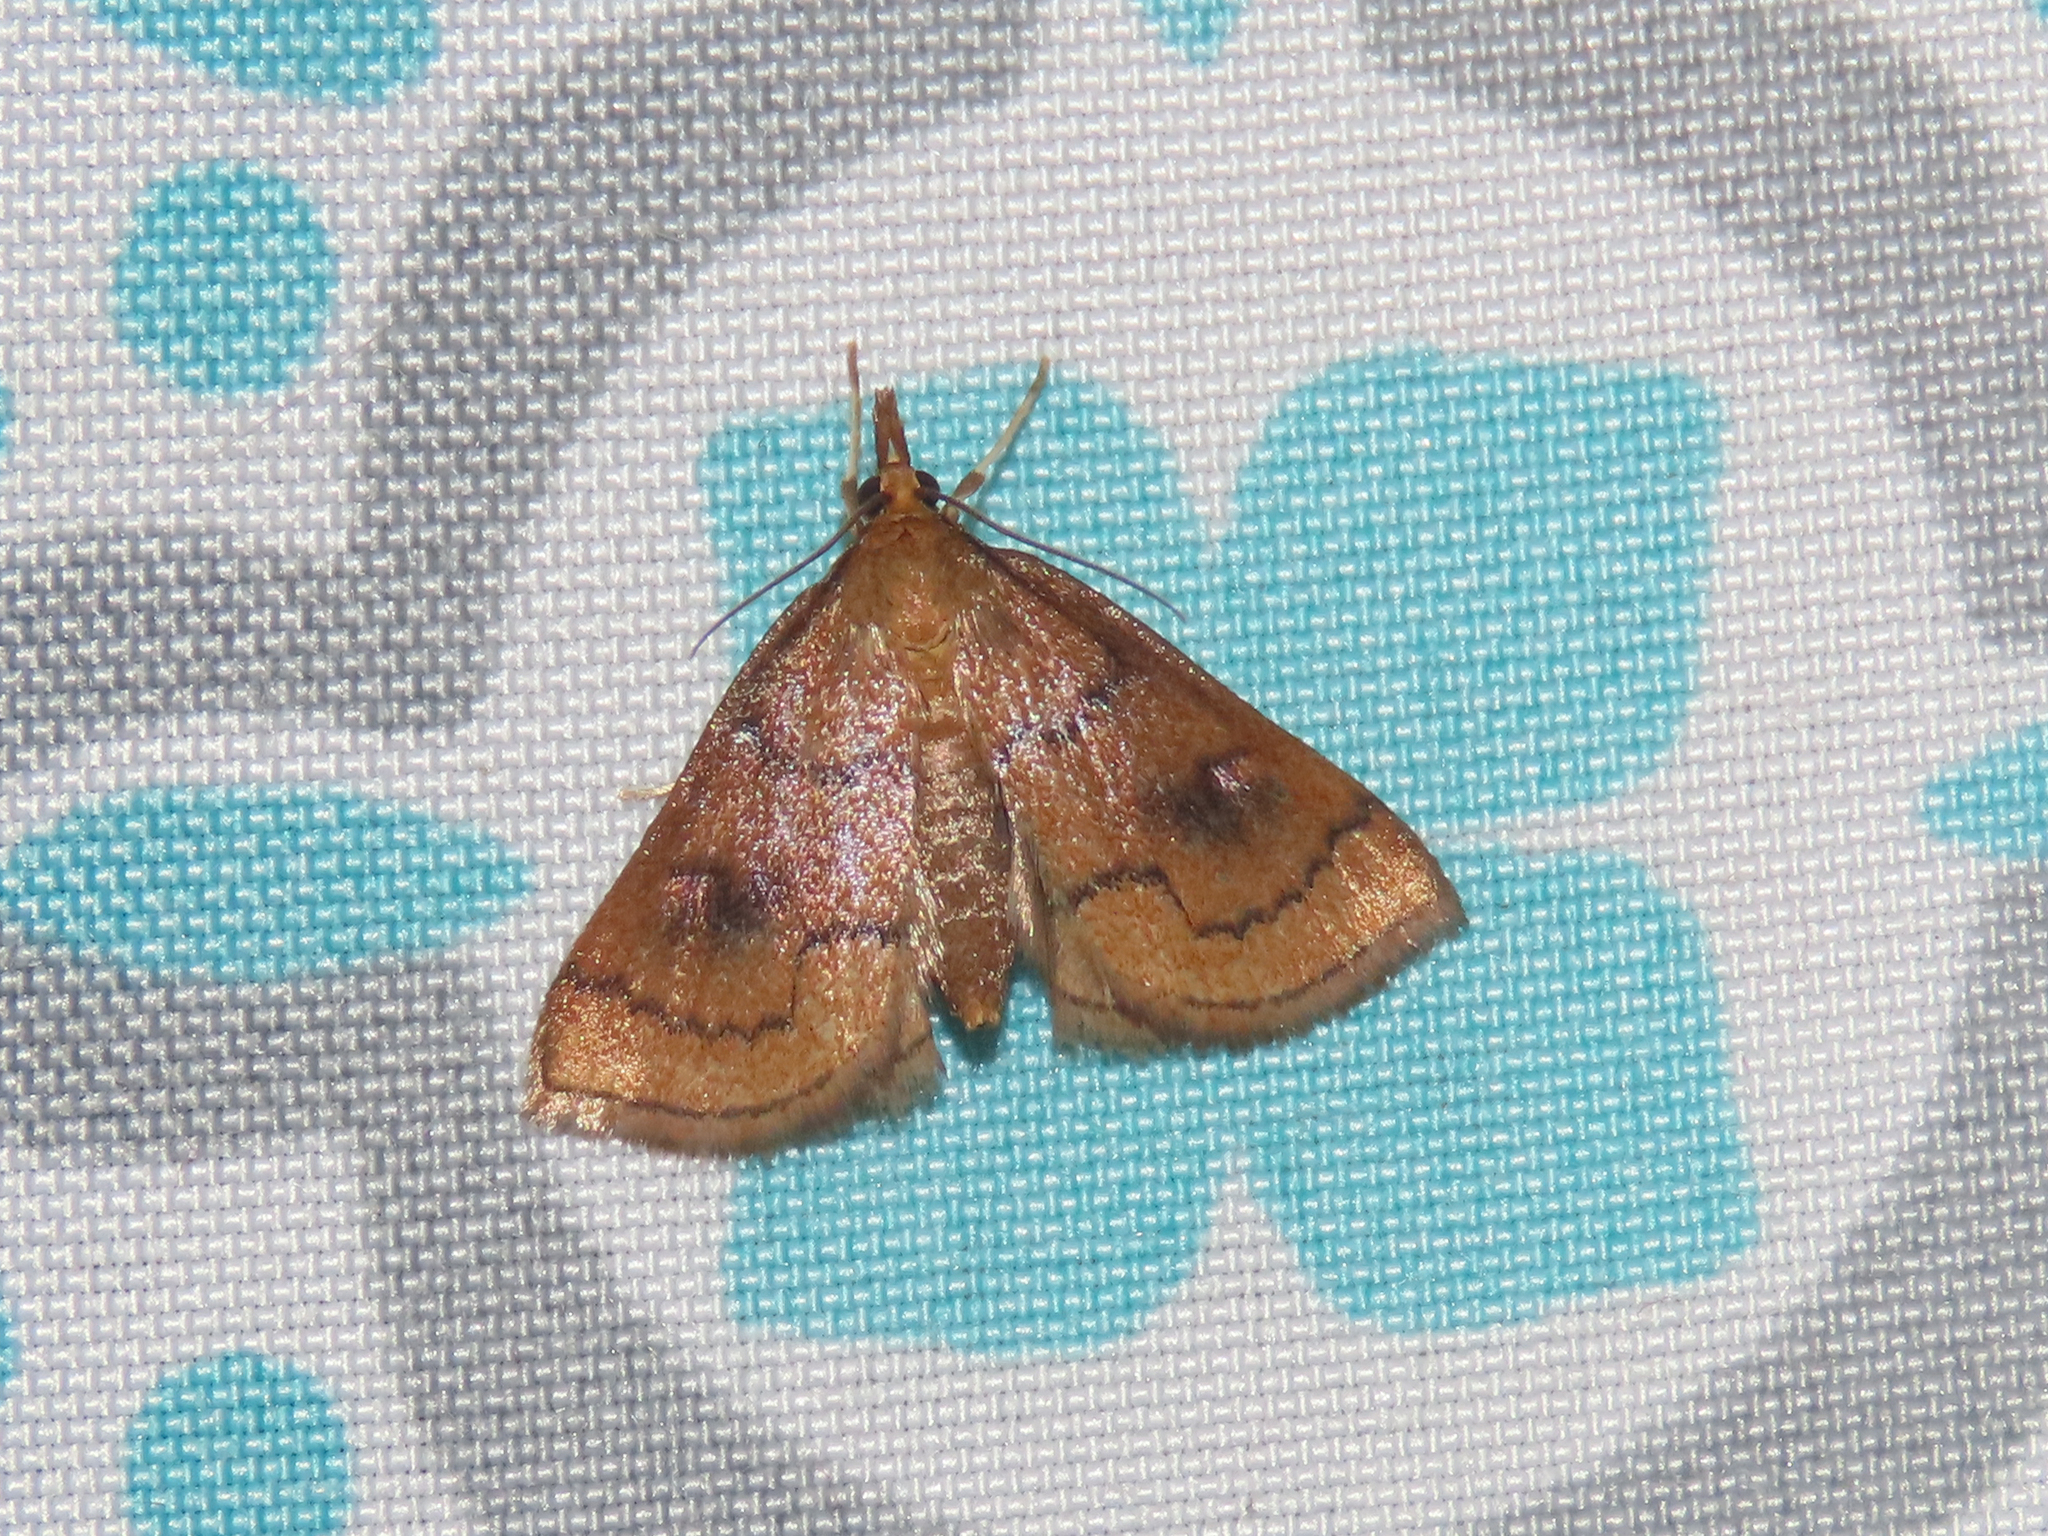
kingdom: Animalia
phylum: Arthropoda
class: Insecta
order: Lepidoptera
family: Crambidae
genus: Fumibotys
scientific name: Fumibotys fumalis
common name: Mint root borer moth
